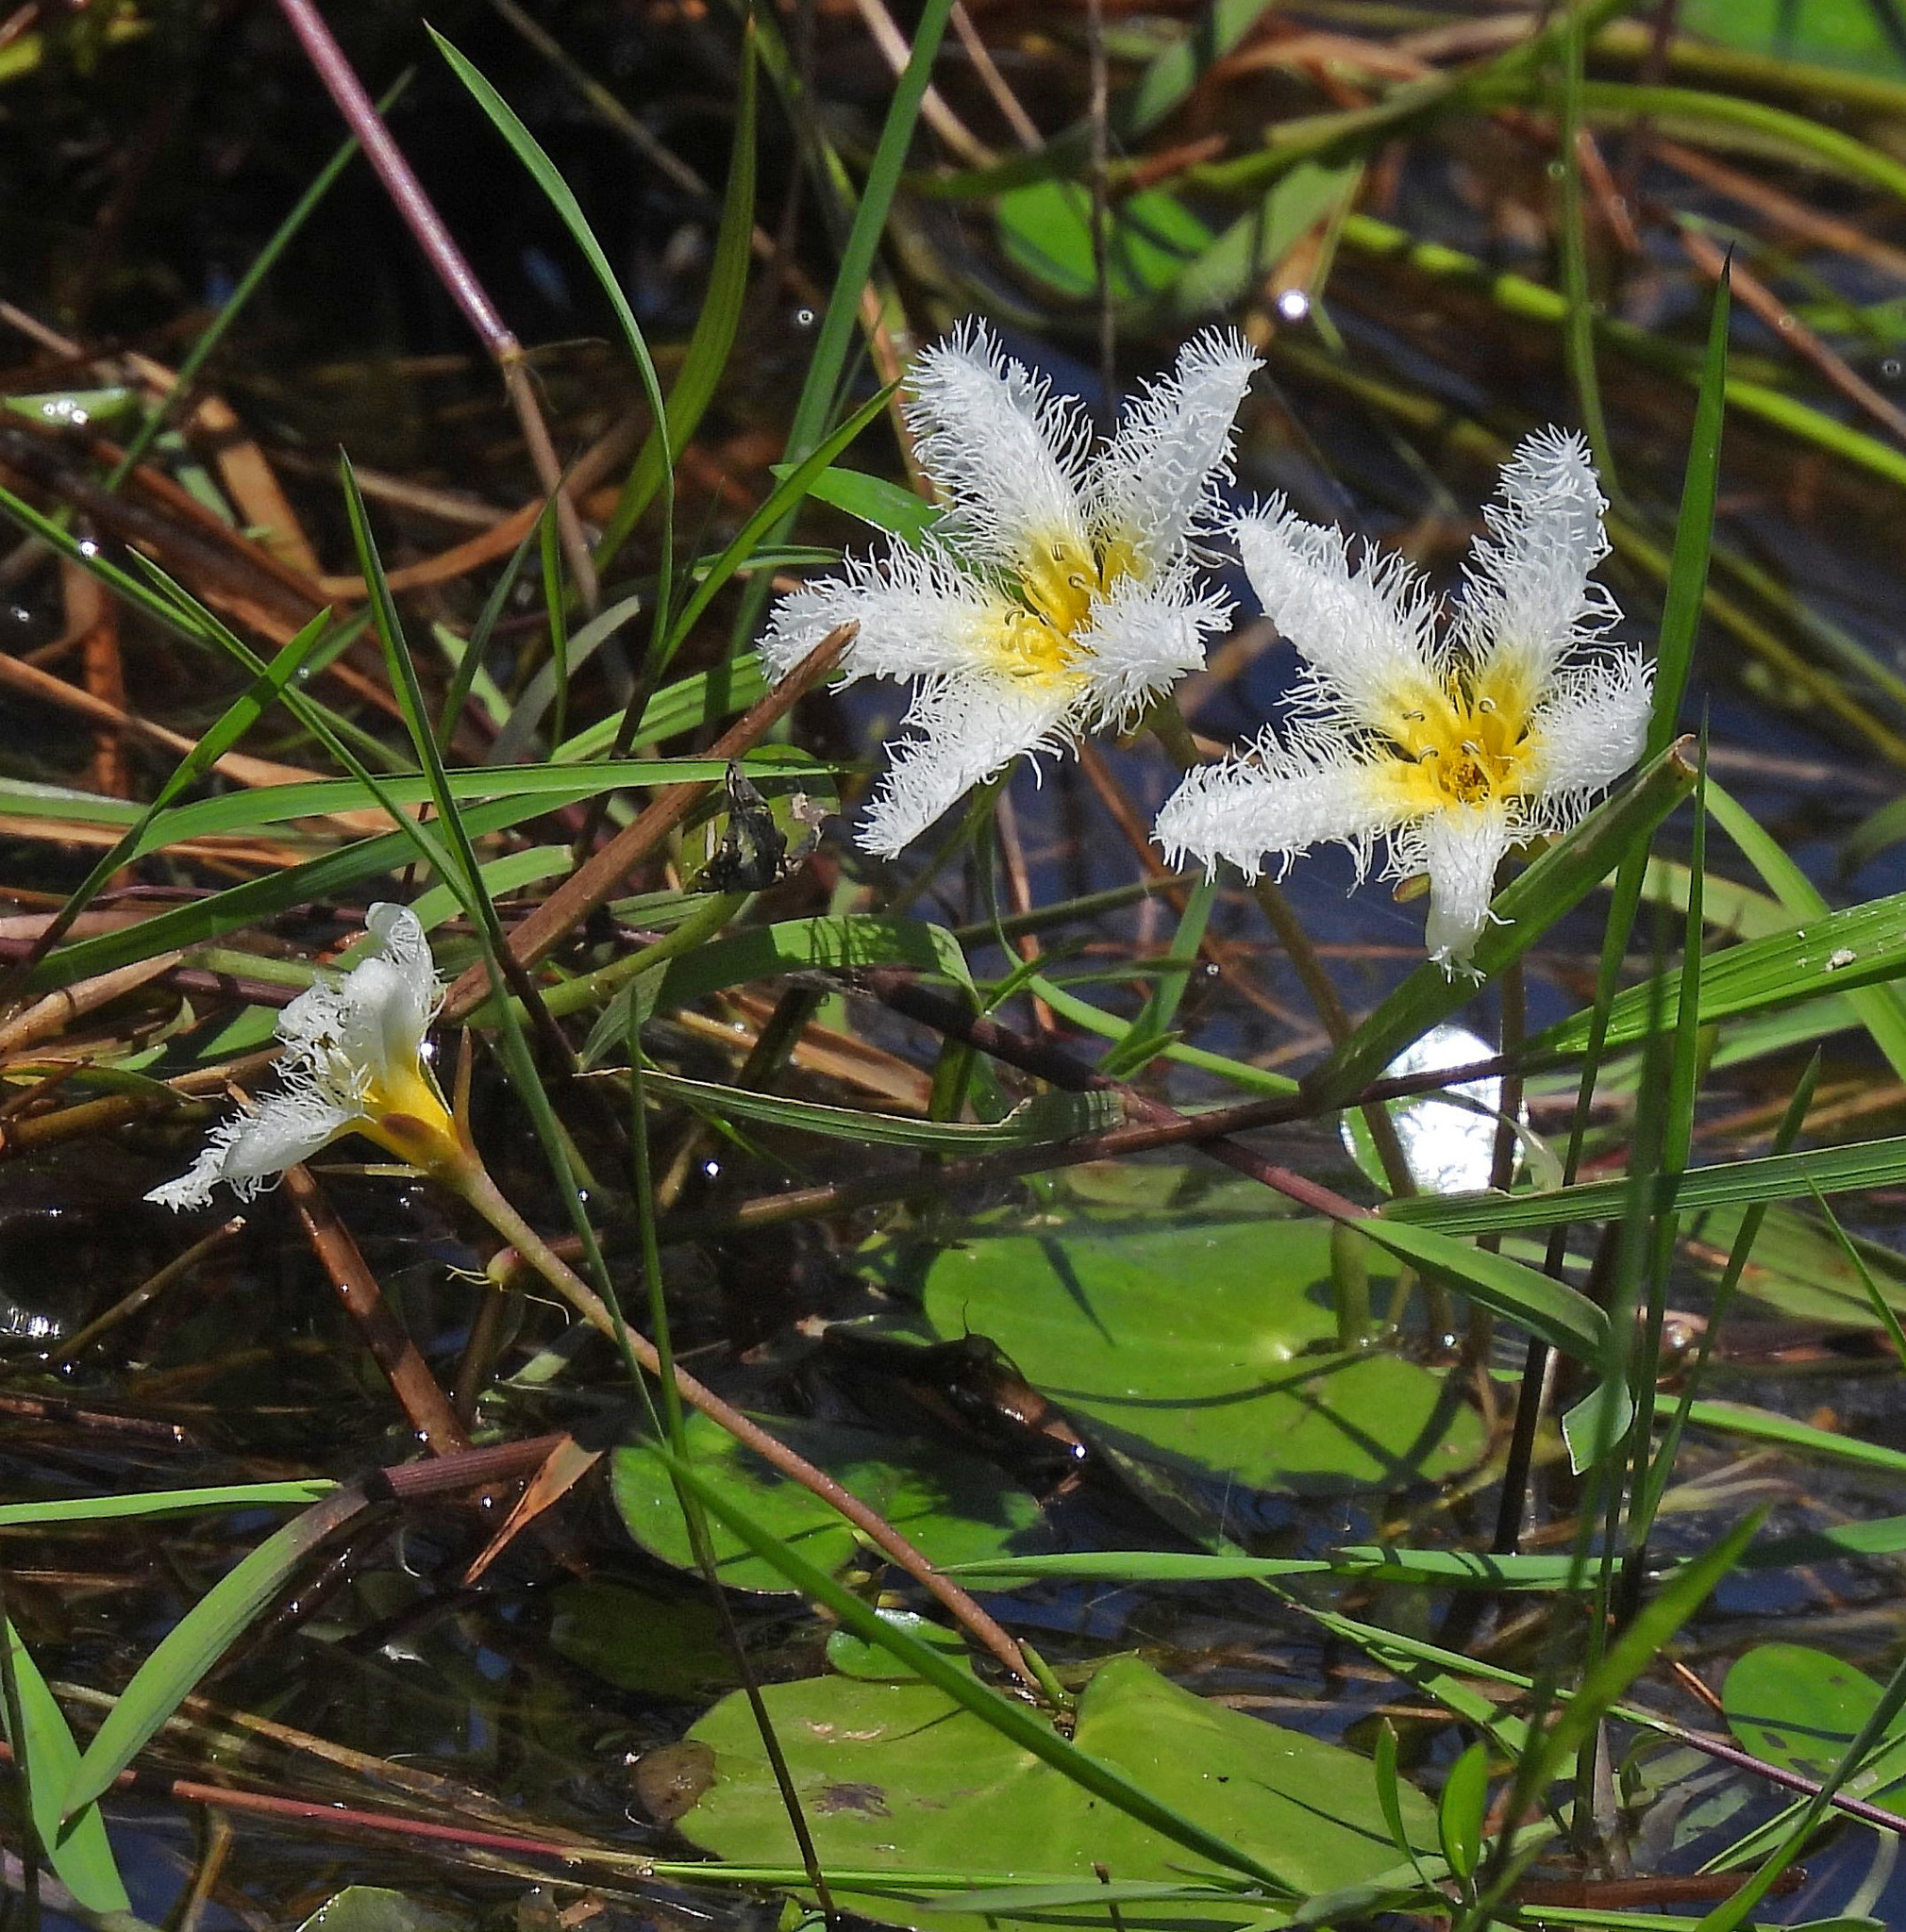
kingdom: Plantae
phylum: Tracheophyta
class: Magnoliopsida
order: Asterales
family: Menyanthaceae
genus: Nymphoides
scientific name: Nymphoides humboldtiana
